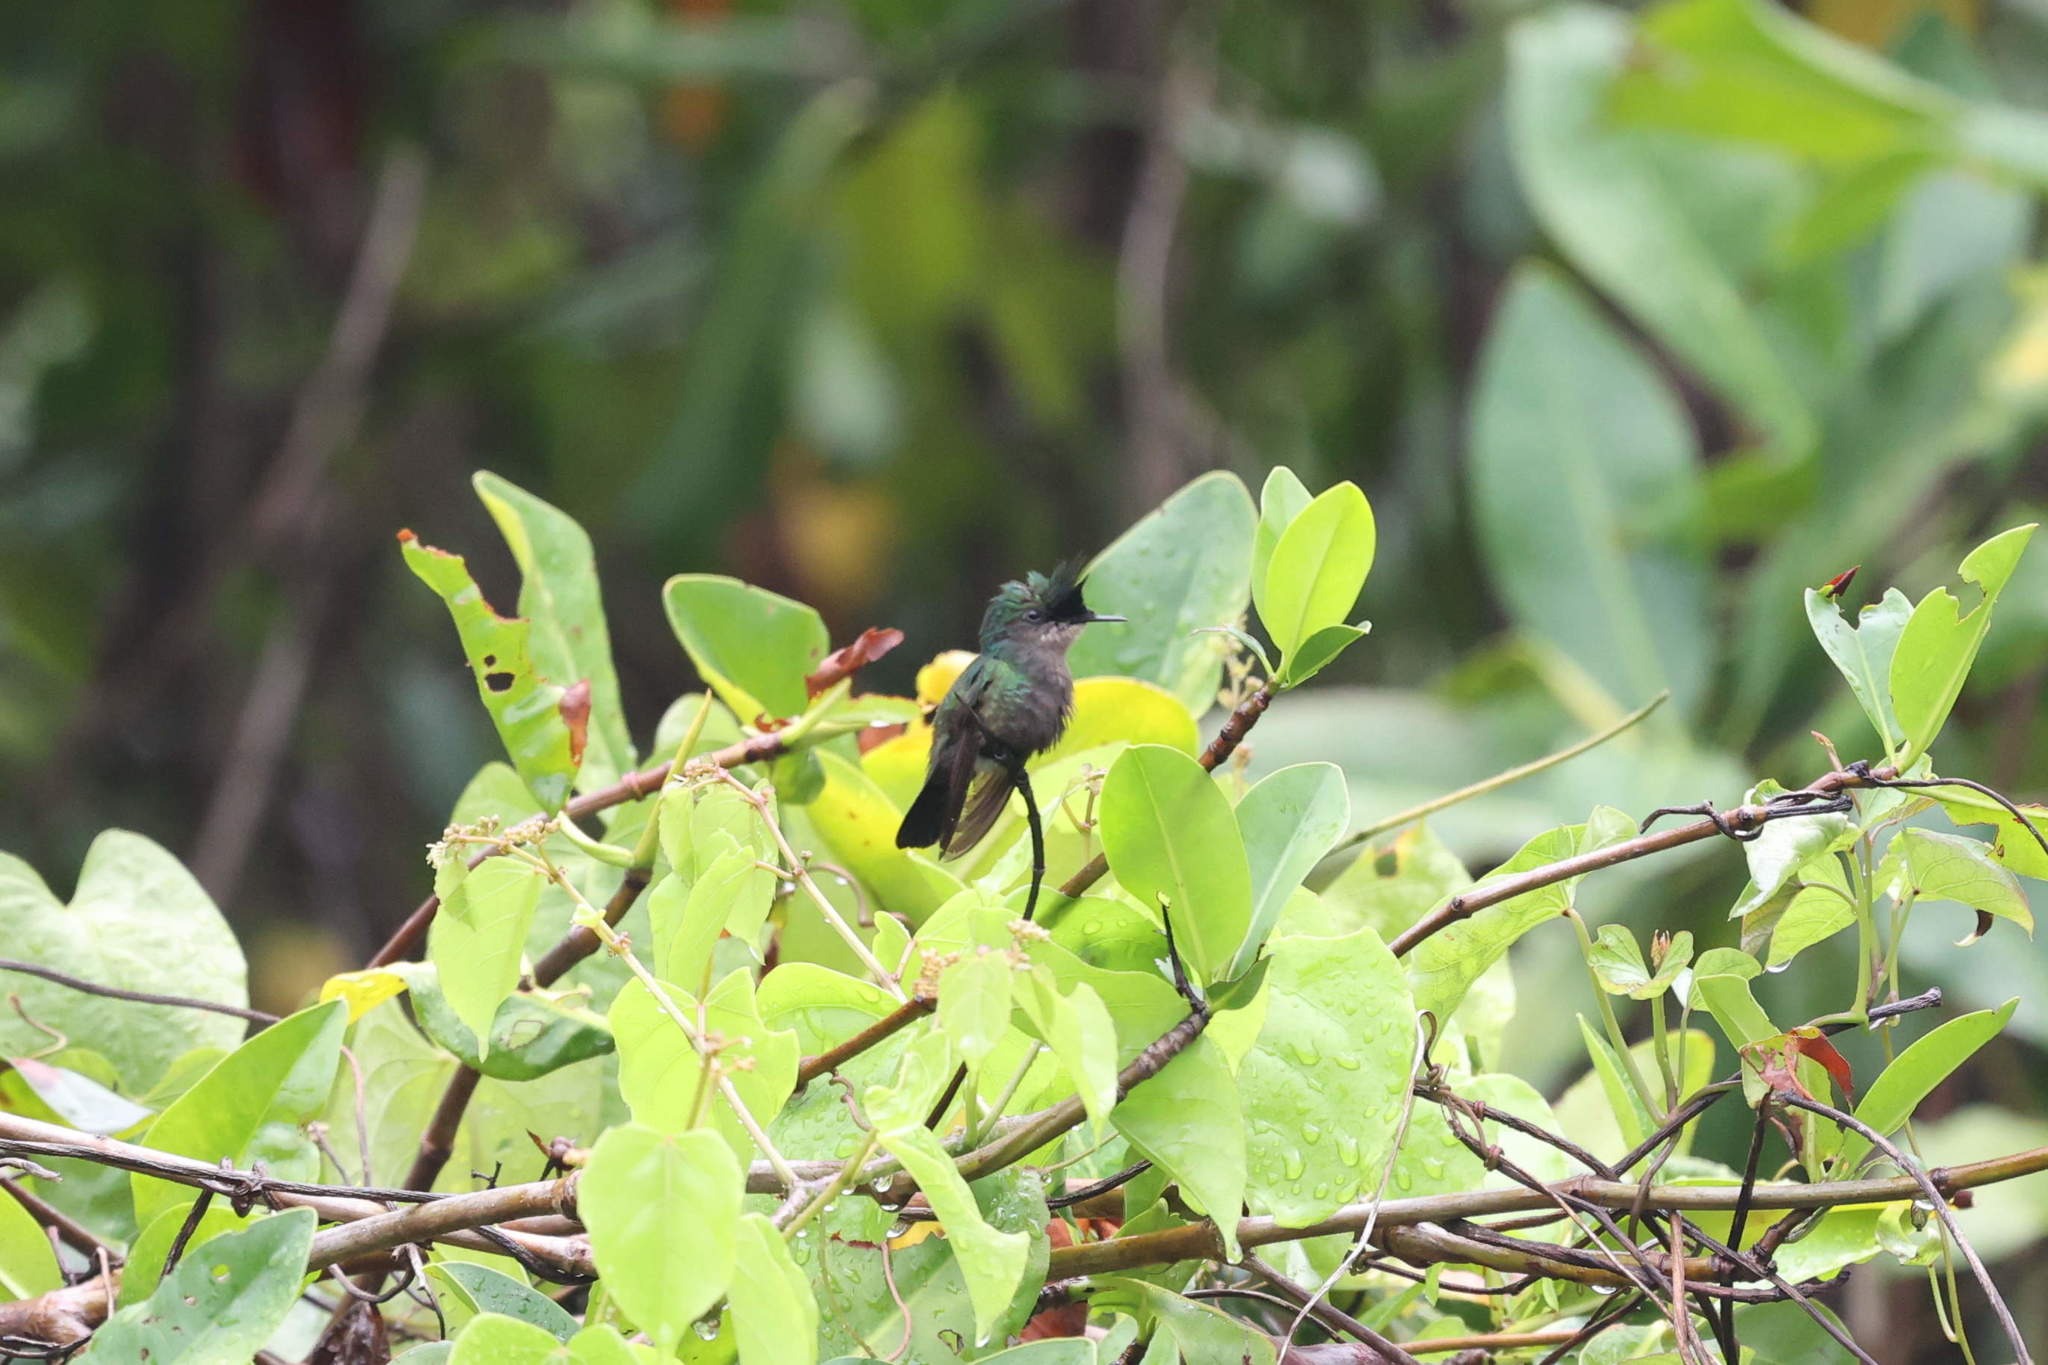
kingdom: Animalia
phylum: Chordata
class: Aves
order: Apodiformes
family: Trochilidae
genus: Orthorhyncus
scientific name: Orthorhyncus cristatus
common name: Antillean crested hummingbird
